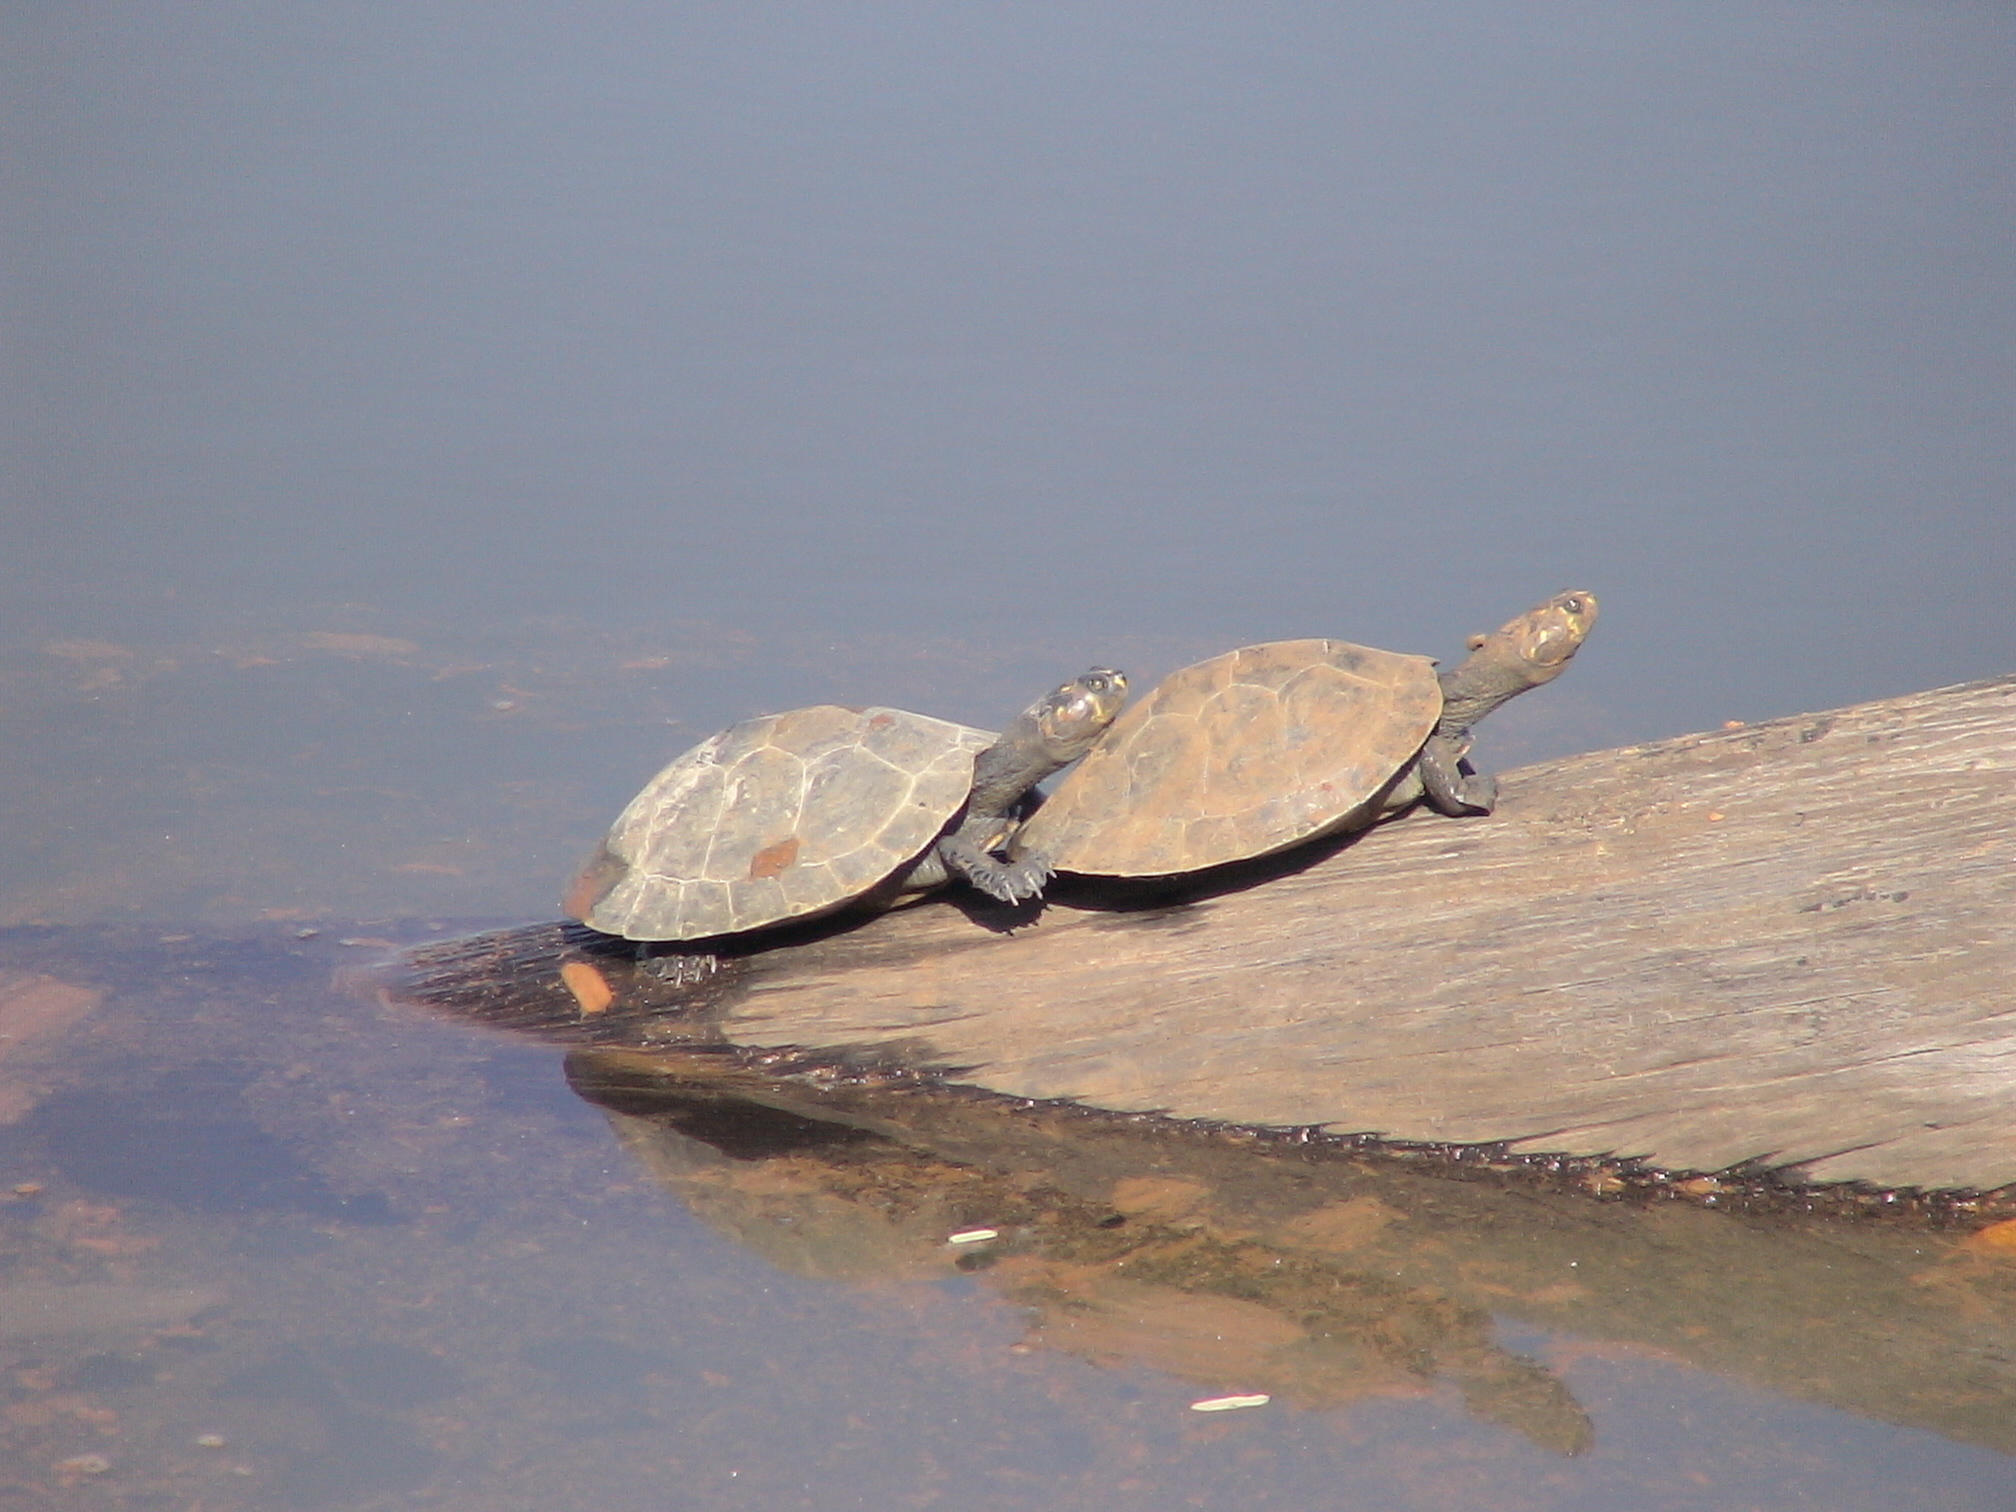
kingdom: Animalia
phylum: Chordata
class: Testudines
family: Podocnemididae
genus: Podocnemis
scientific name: Podocnemis unifilis
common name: Yellow-spotted amazon river turtle
